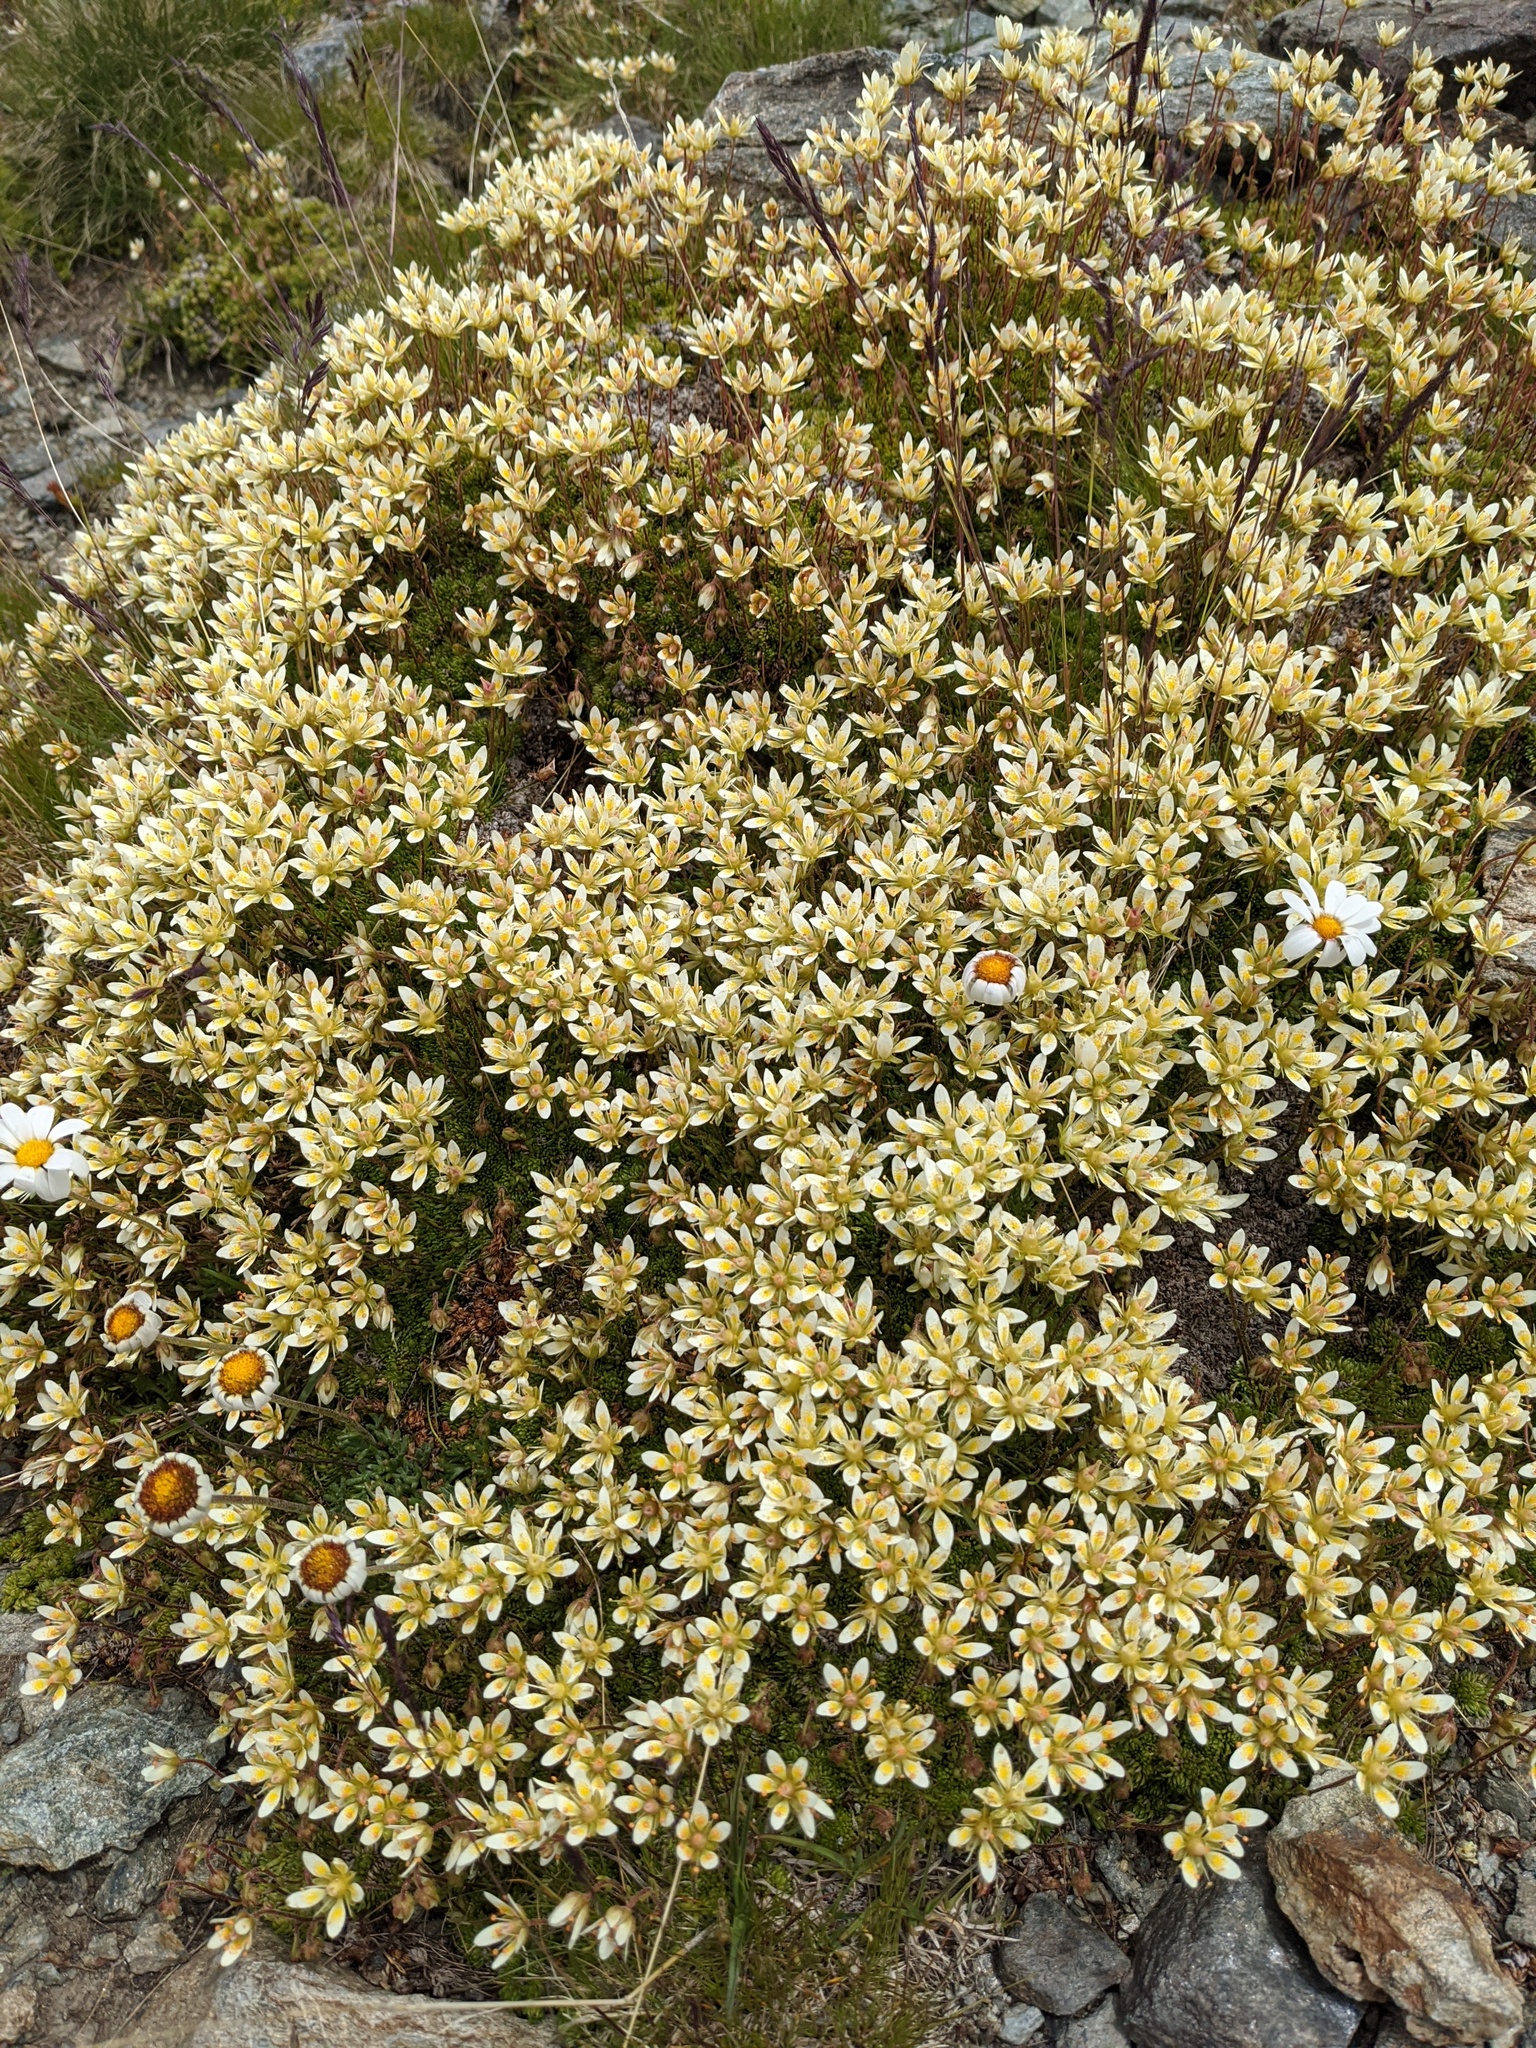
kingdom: Plantae
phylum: Tracheophyta
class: Magnoliopsida
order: Saxifragales
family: Saxifragaceae
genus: Saxifraga
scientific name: Saxifraga bryoides
